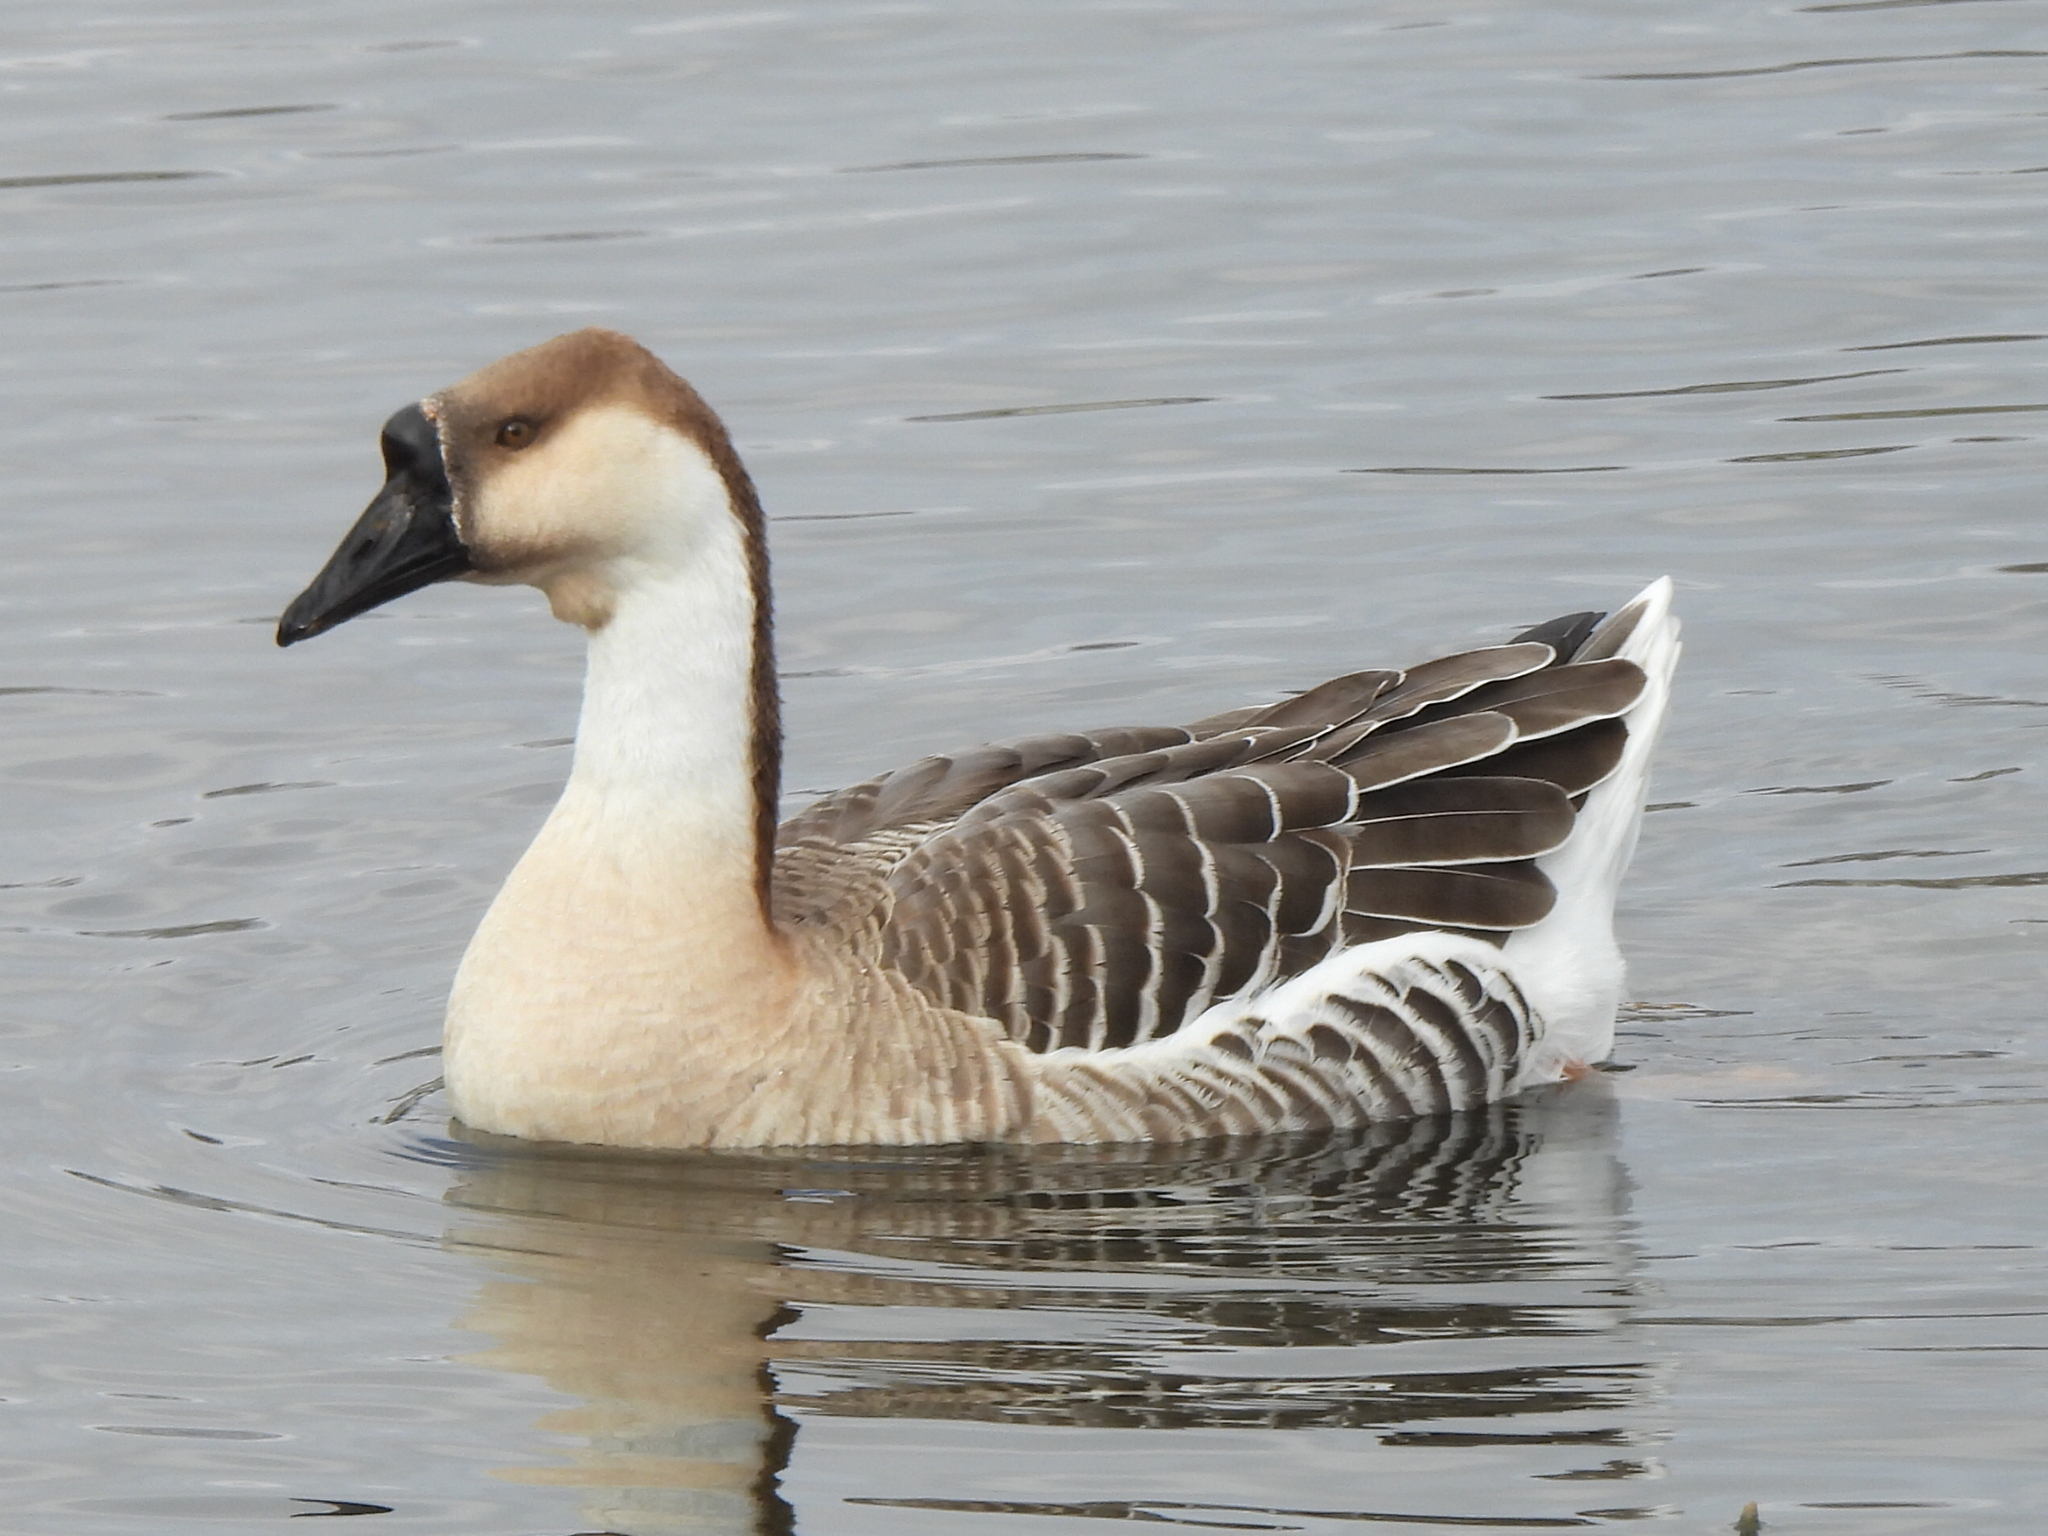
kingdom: Animalia
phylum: Chordata
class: Aves
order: Anseriformes
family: Anatidae
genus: Anser
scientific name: Anser cygnoides
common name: Swan goose
